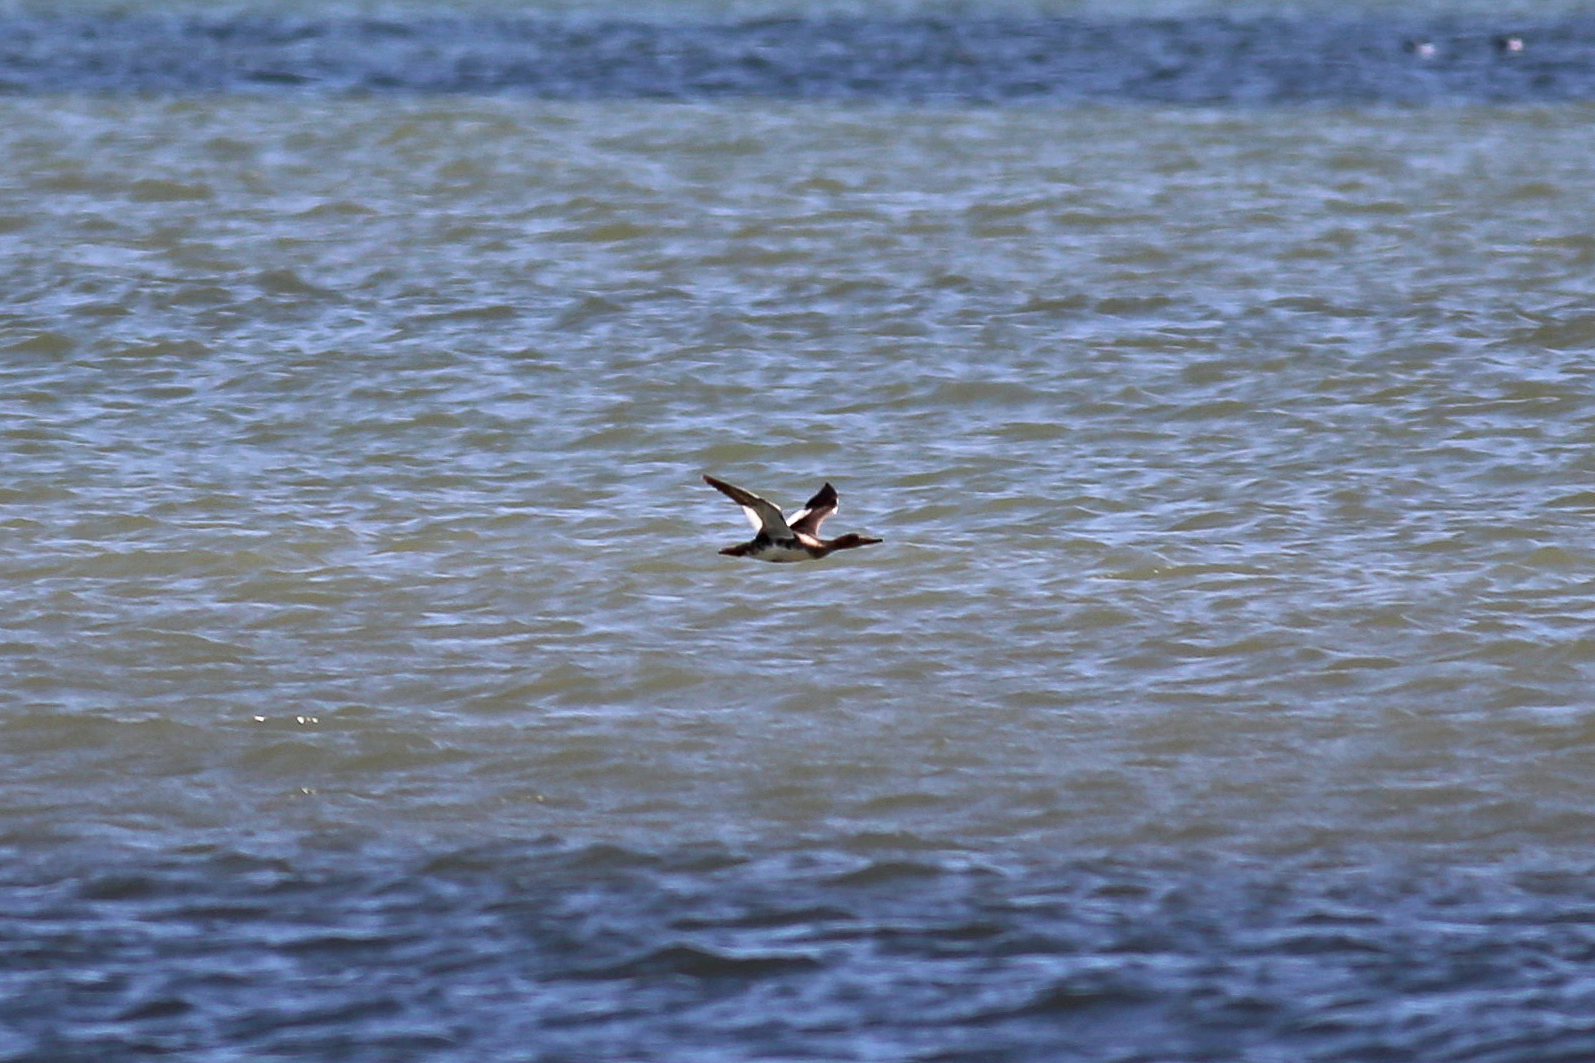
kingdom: Animalia
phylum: Chordata
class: Aves
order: Anseriformes
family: Anatidae
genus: Mergus
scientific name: Mergus serrator
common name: Red-breasted merganser
